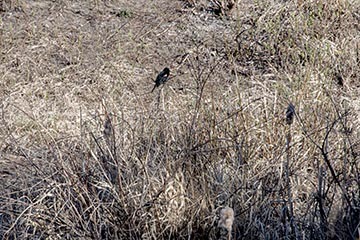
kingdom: Animalia
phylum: Chordata
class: Aves
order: Passeriformes
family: Icteridae
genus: Agelaius
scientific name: Agelaius phoeniceus
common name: Red-winged blackbird
